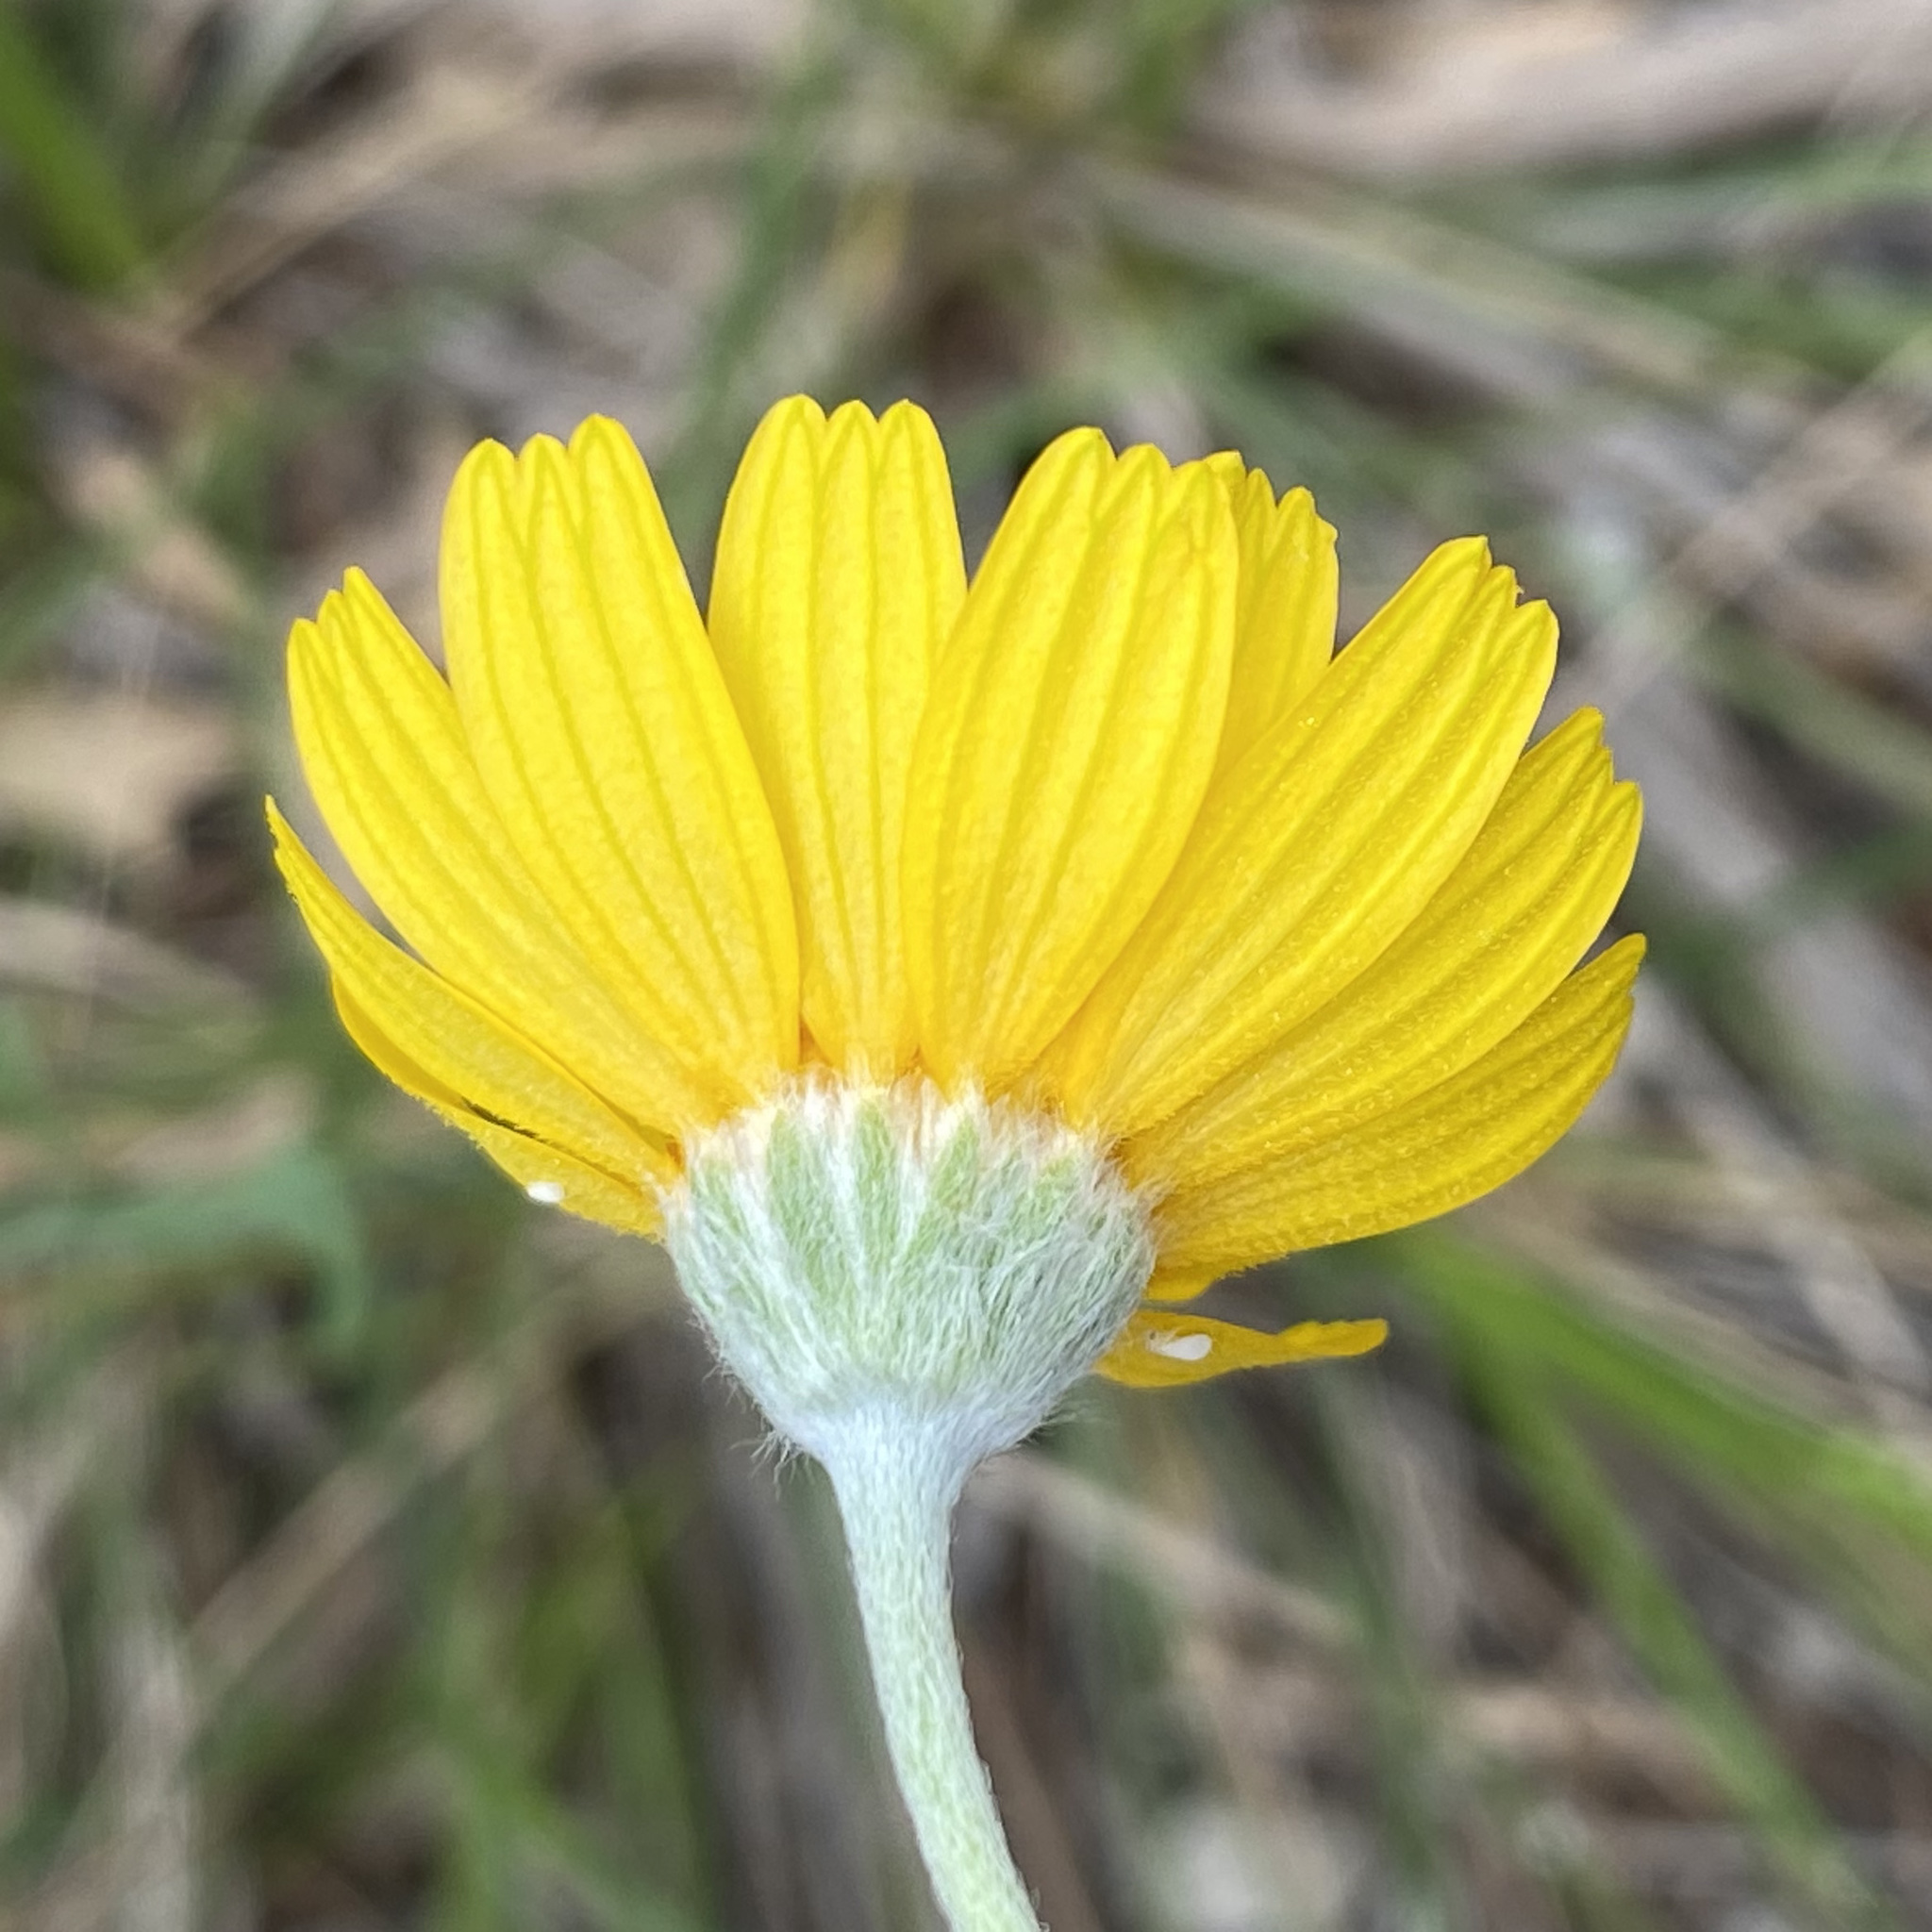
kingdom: Plantae
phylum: Tracheophyta
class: Magnoliopsida
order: Asterales
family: Asteraceae
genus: Tetraneuris
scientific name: Tetraneuris scaposa
